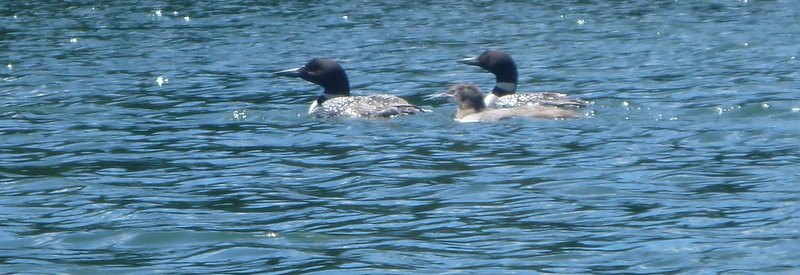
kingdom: Animalia
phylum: Chordata
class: Aves
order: Gaviiformes
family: Gaviidae
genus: Gavia
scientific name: Gavia immer
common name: Common loon
